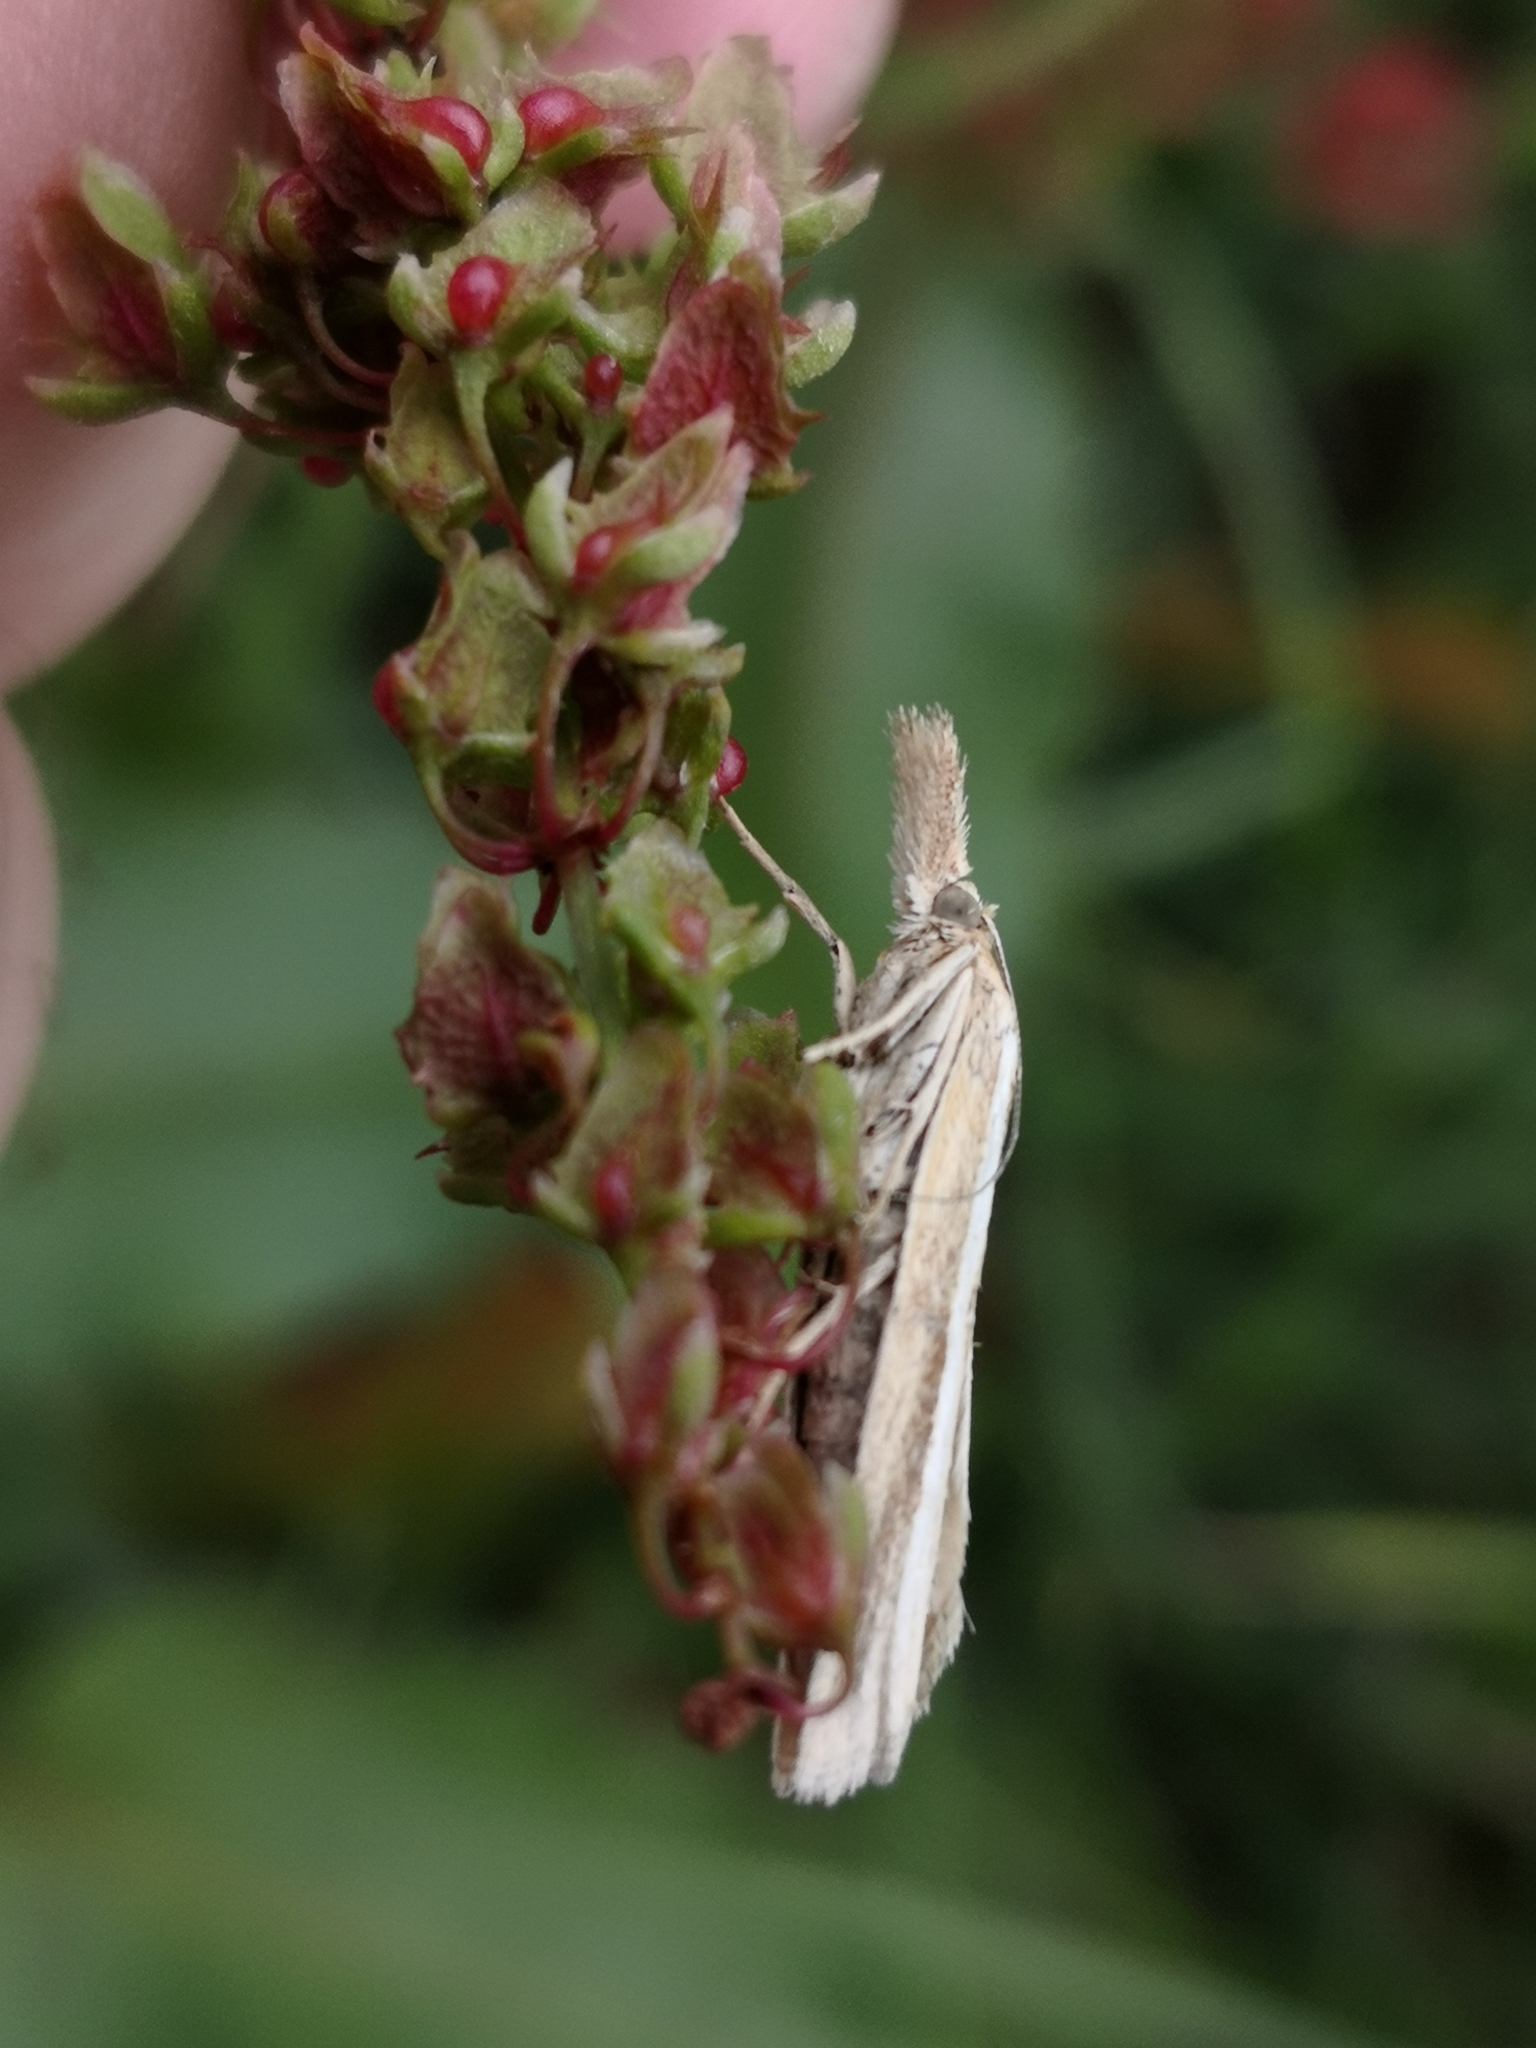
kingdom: Animalia
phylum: Arthropoda
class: Insecta
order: Lepidoptera
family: Crambidae
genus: Agriphila
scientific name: Agriphila tristellus
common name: Common grass-veneer
